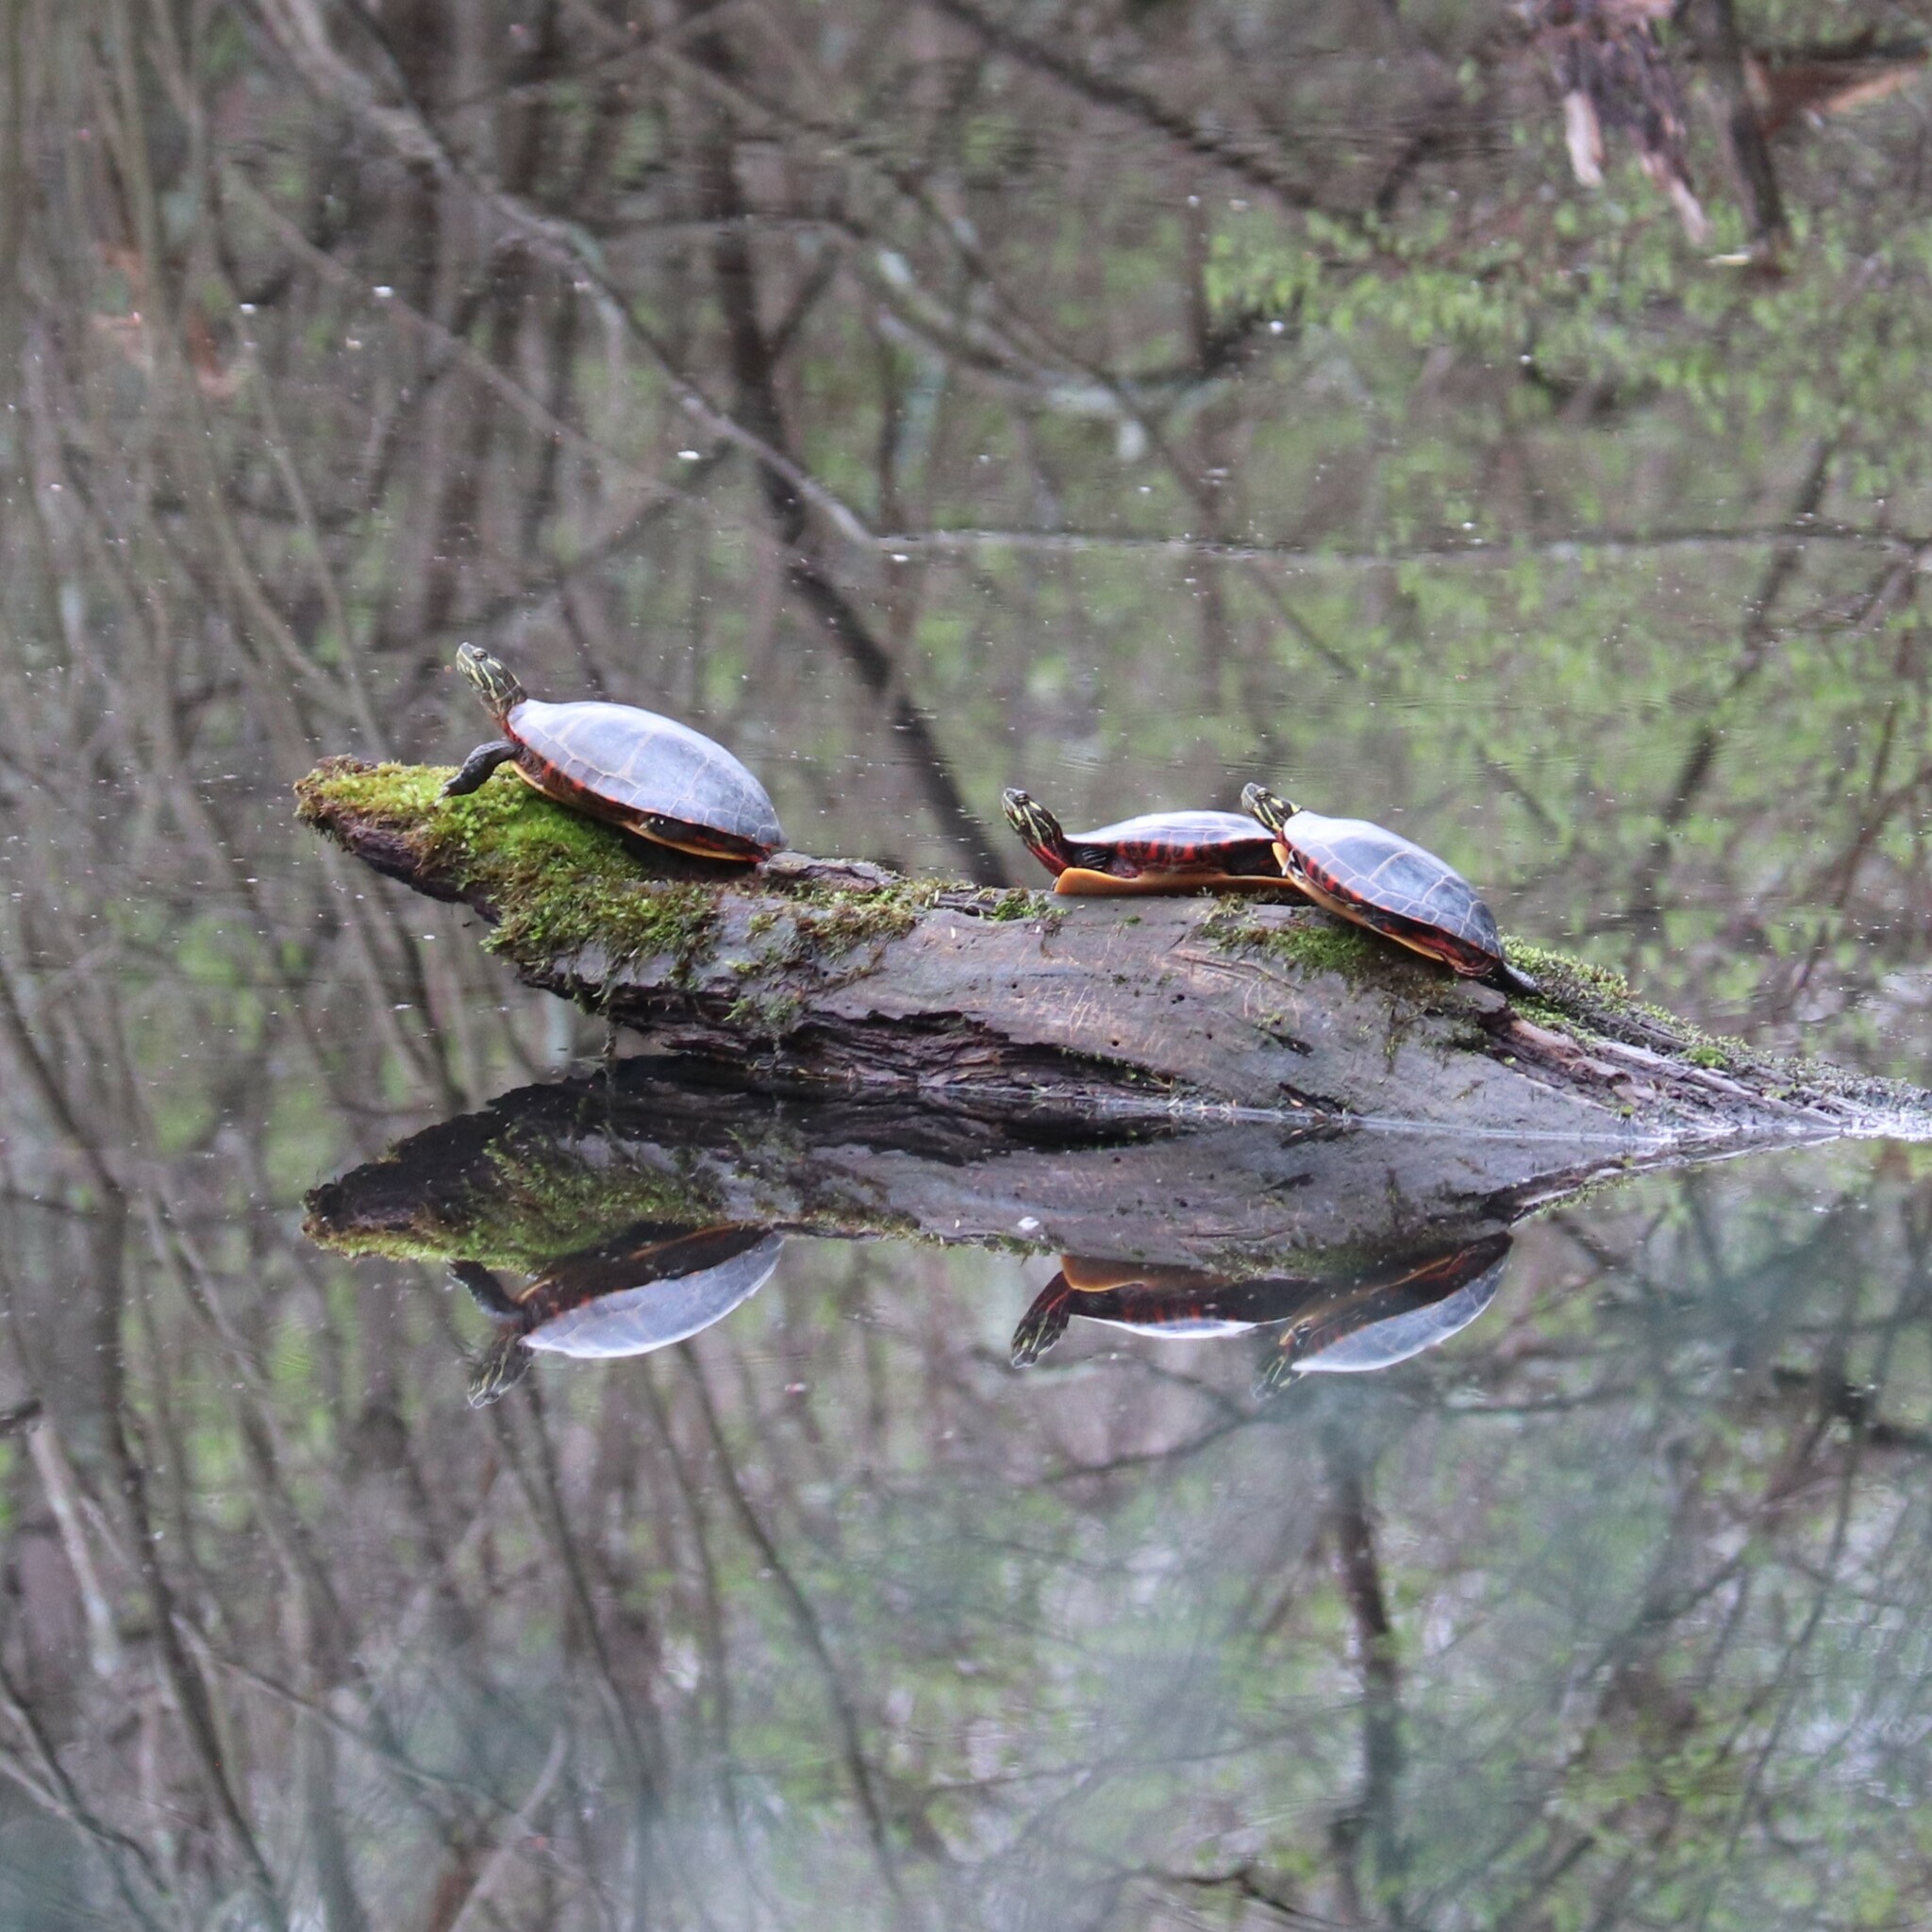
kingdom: Animalia
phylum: Chordata
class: Testudines
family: Emydidae
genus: Chrysemys
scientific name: Chrysemys picta
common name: Painted turtle
